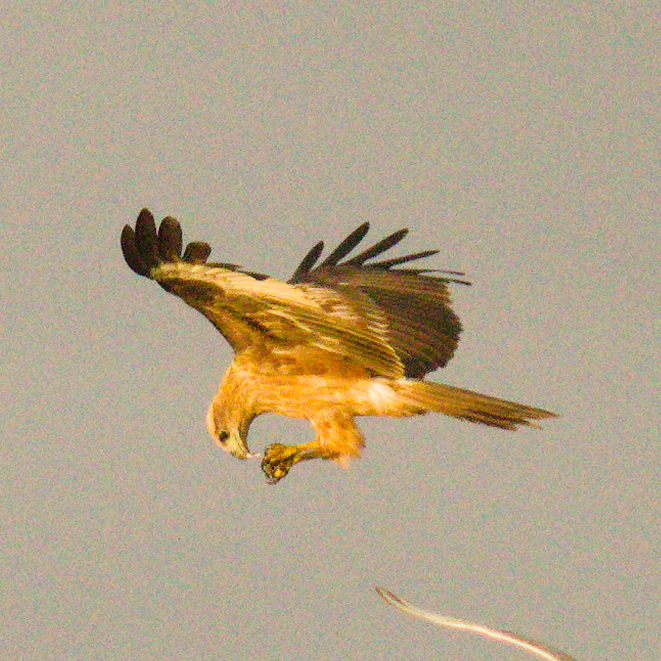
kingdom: Animalia
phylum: Chordata
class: Aves
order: Accipitriformes
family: Accipitridae
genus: Haliastur
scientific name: Haliastur indus
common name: Brahminy kite
